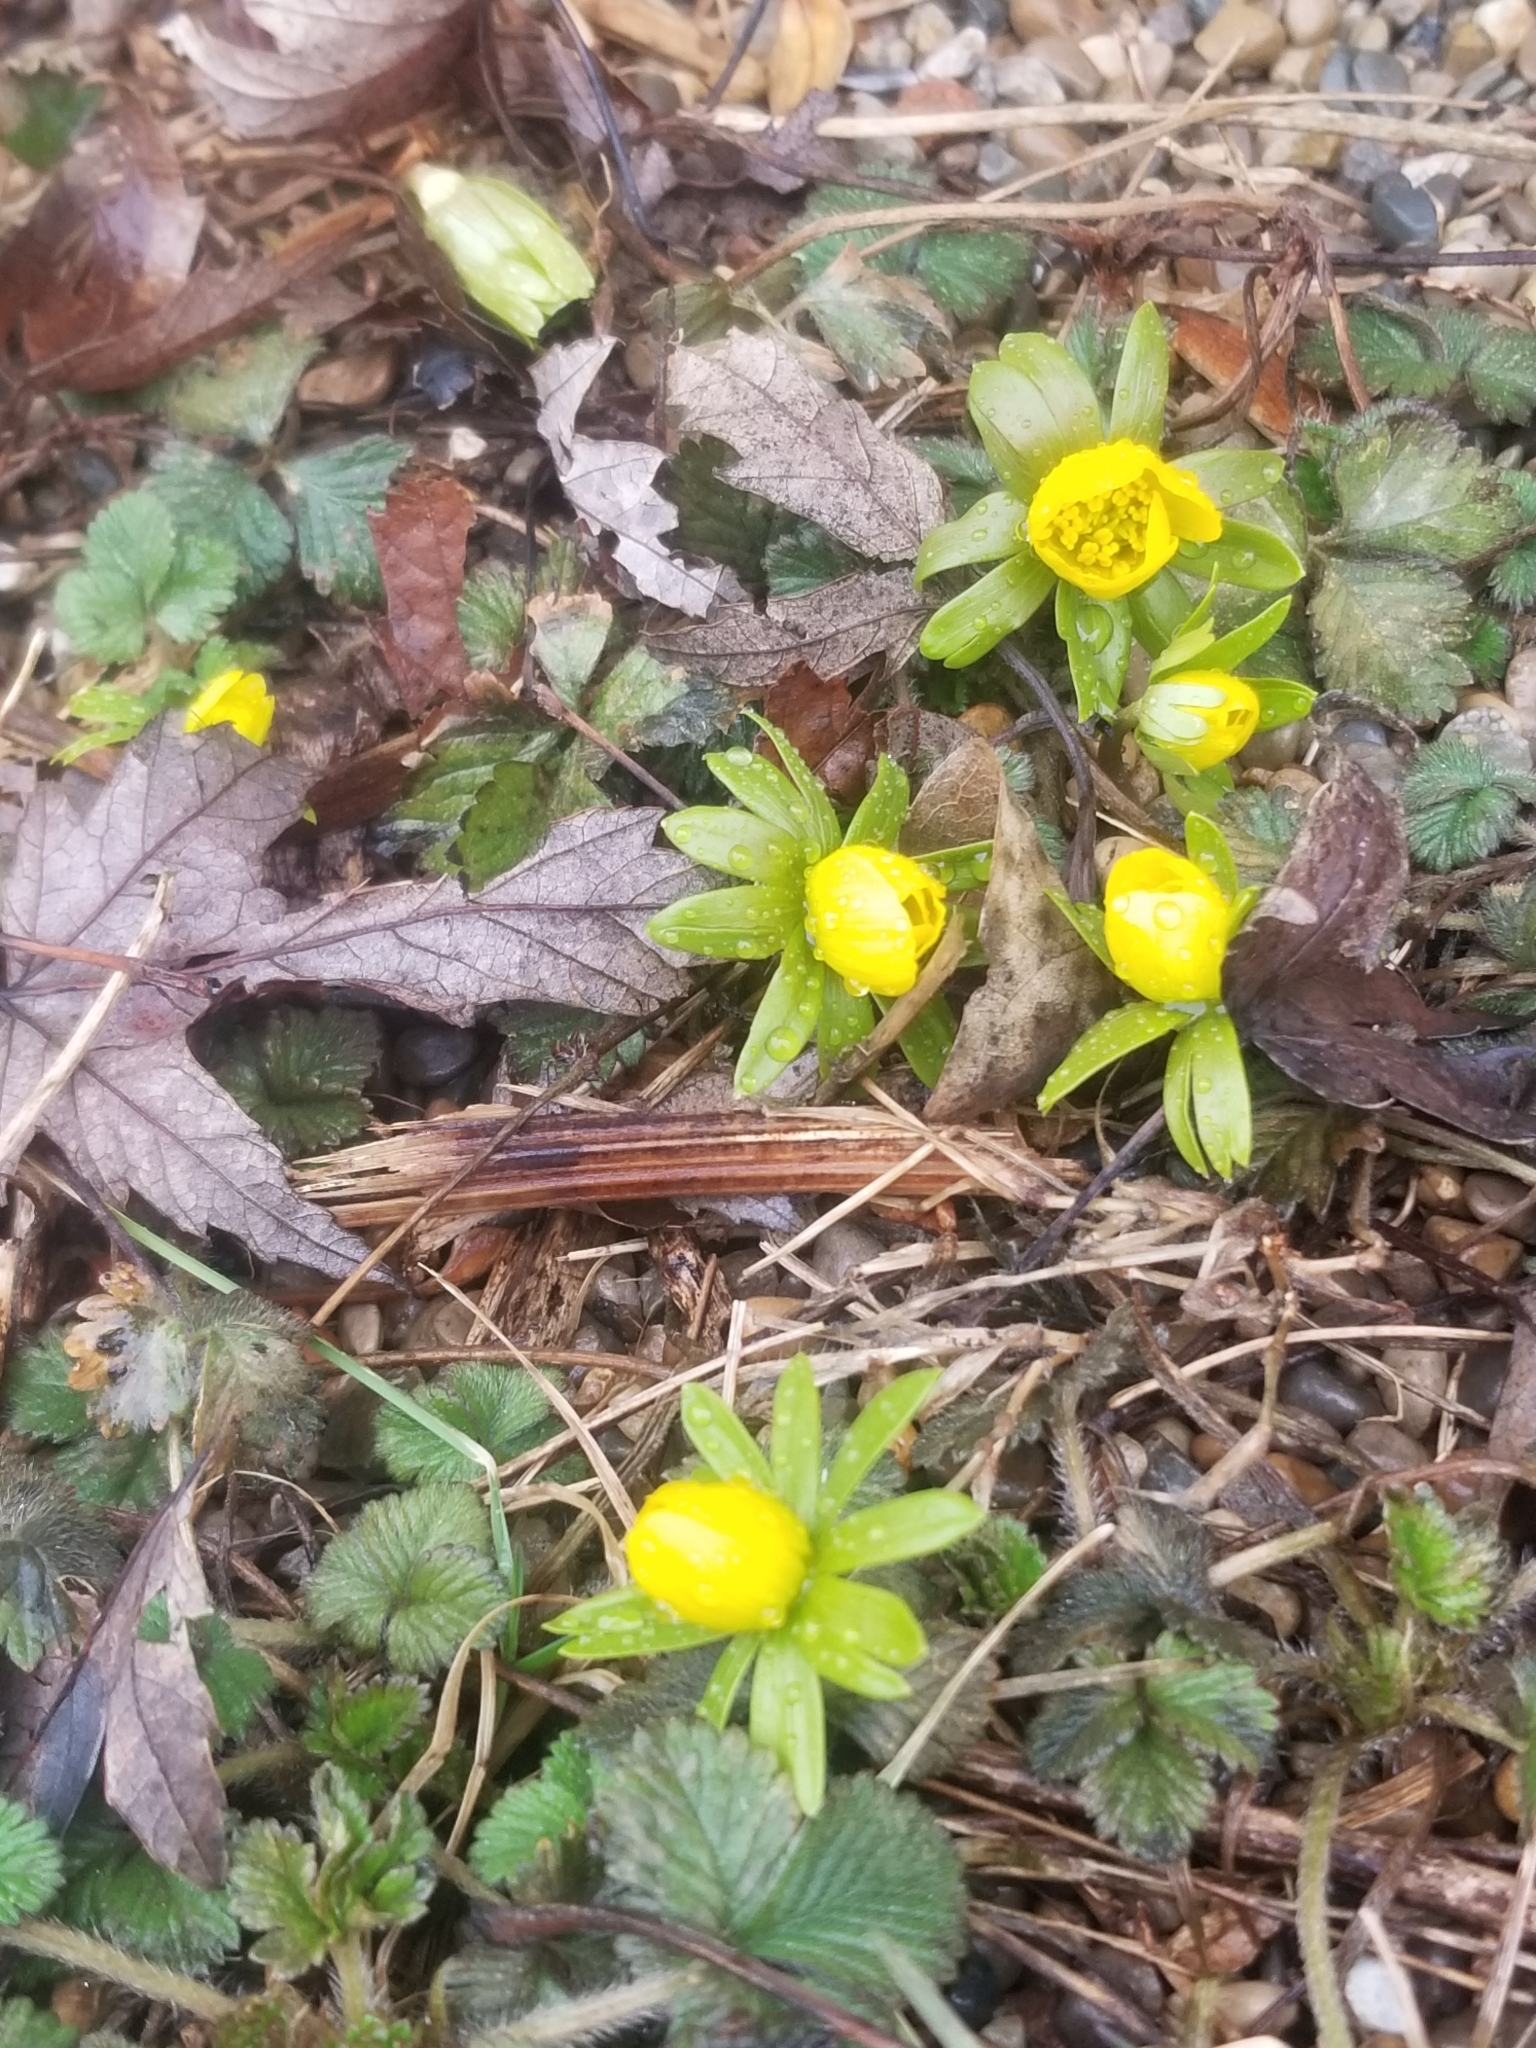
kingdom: Plantae
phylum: Tracheophyta
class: Magnoliopsida
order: Ranunculales
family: Ranunculaceae
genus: Eranthis
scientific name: Eranthis hyemalis
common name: Winter aconite
